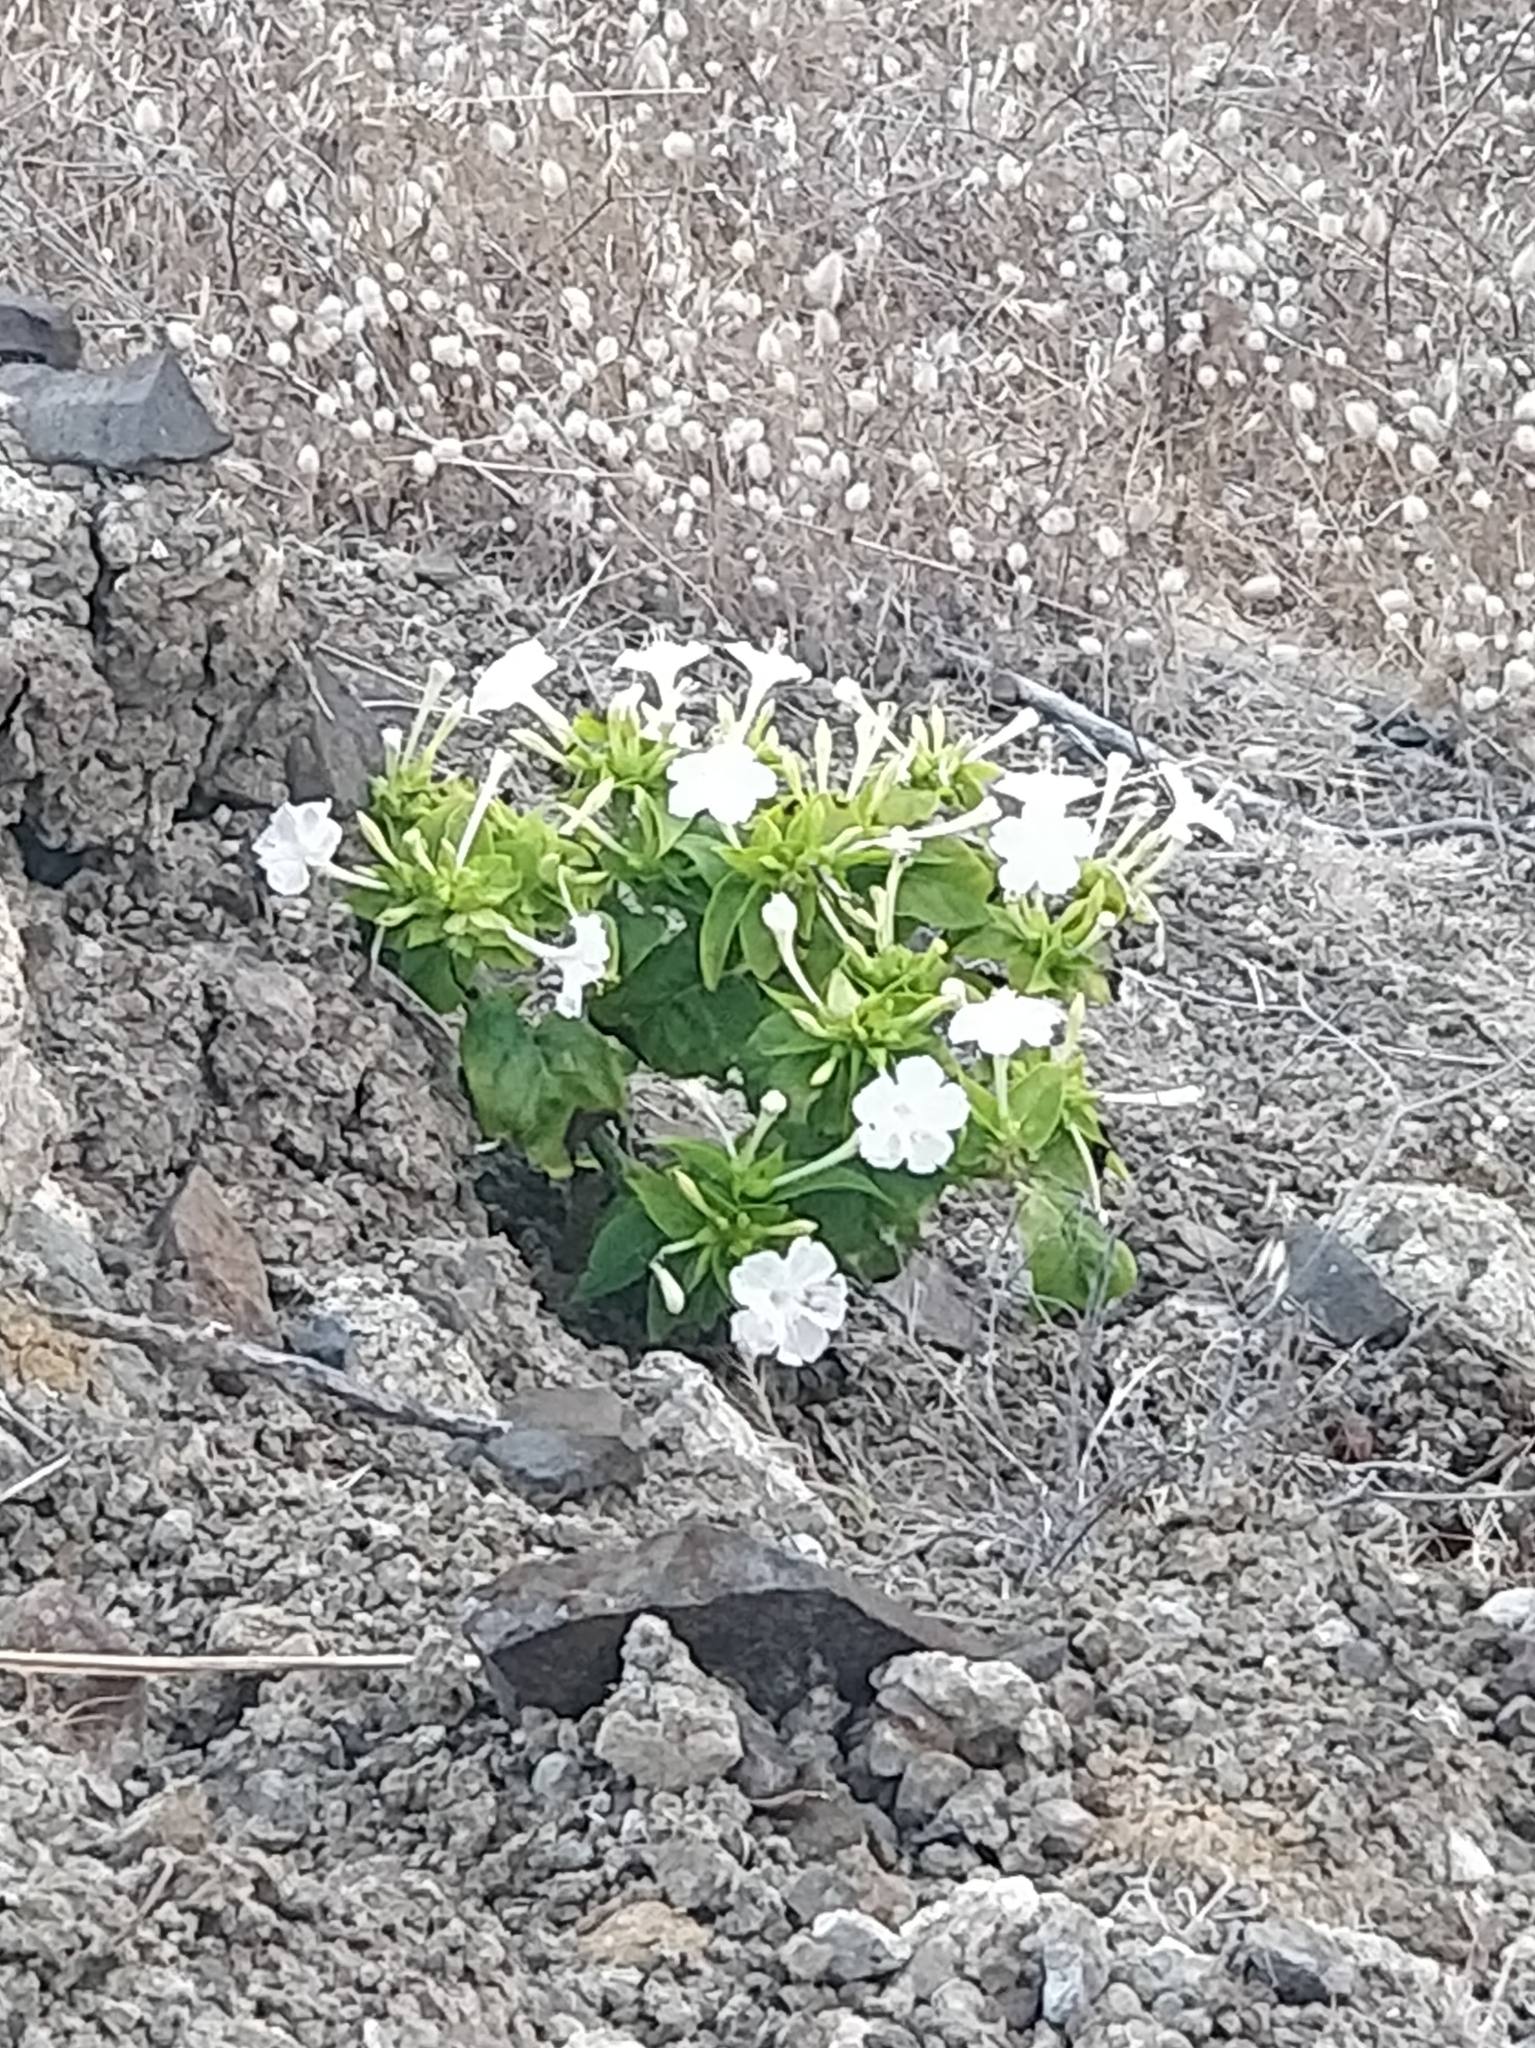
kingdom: Plantae
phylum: Tracheophyta
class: Magnoliopsida
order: Caryophyllales
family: Nyctaginaceae
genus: Mirabilis
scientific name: Mirabilis jalapa
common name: Marvel-of-peru
